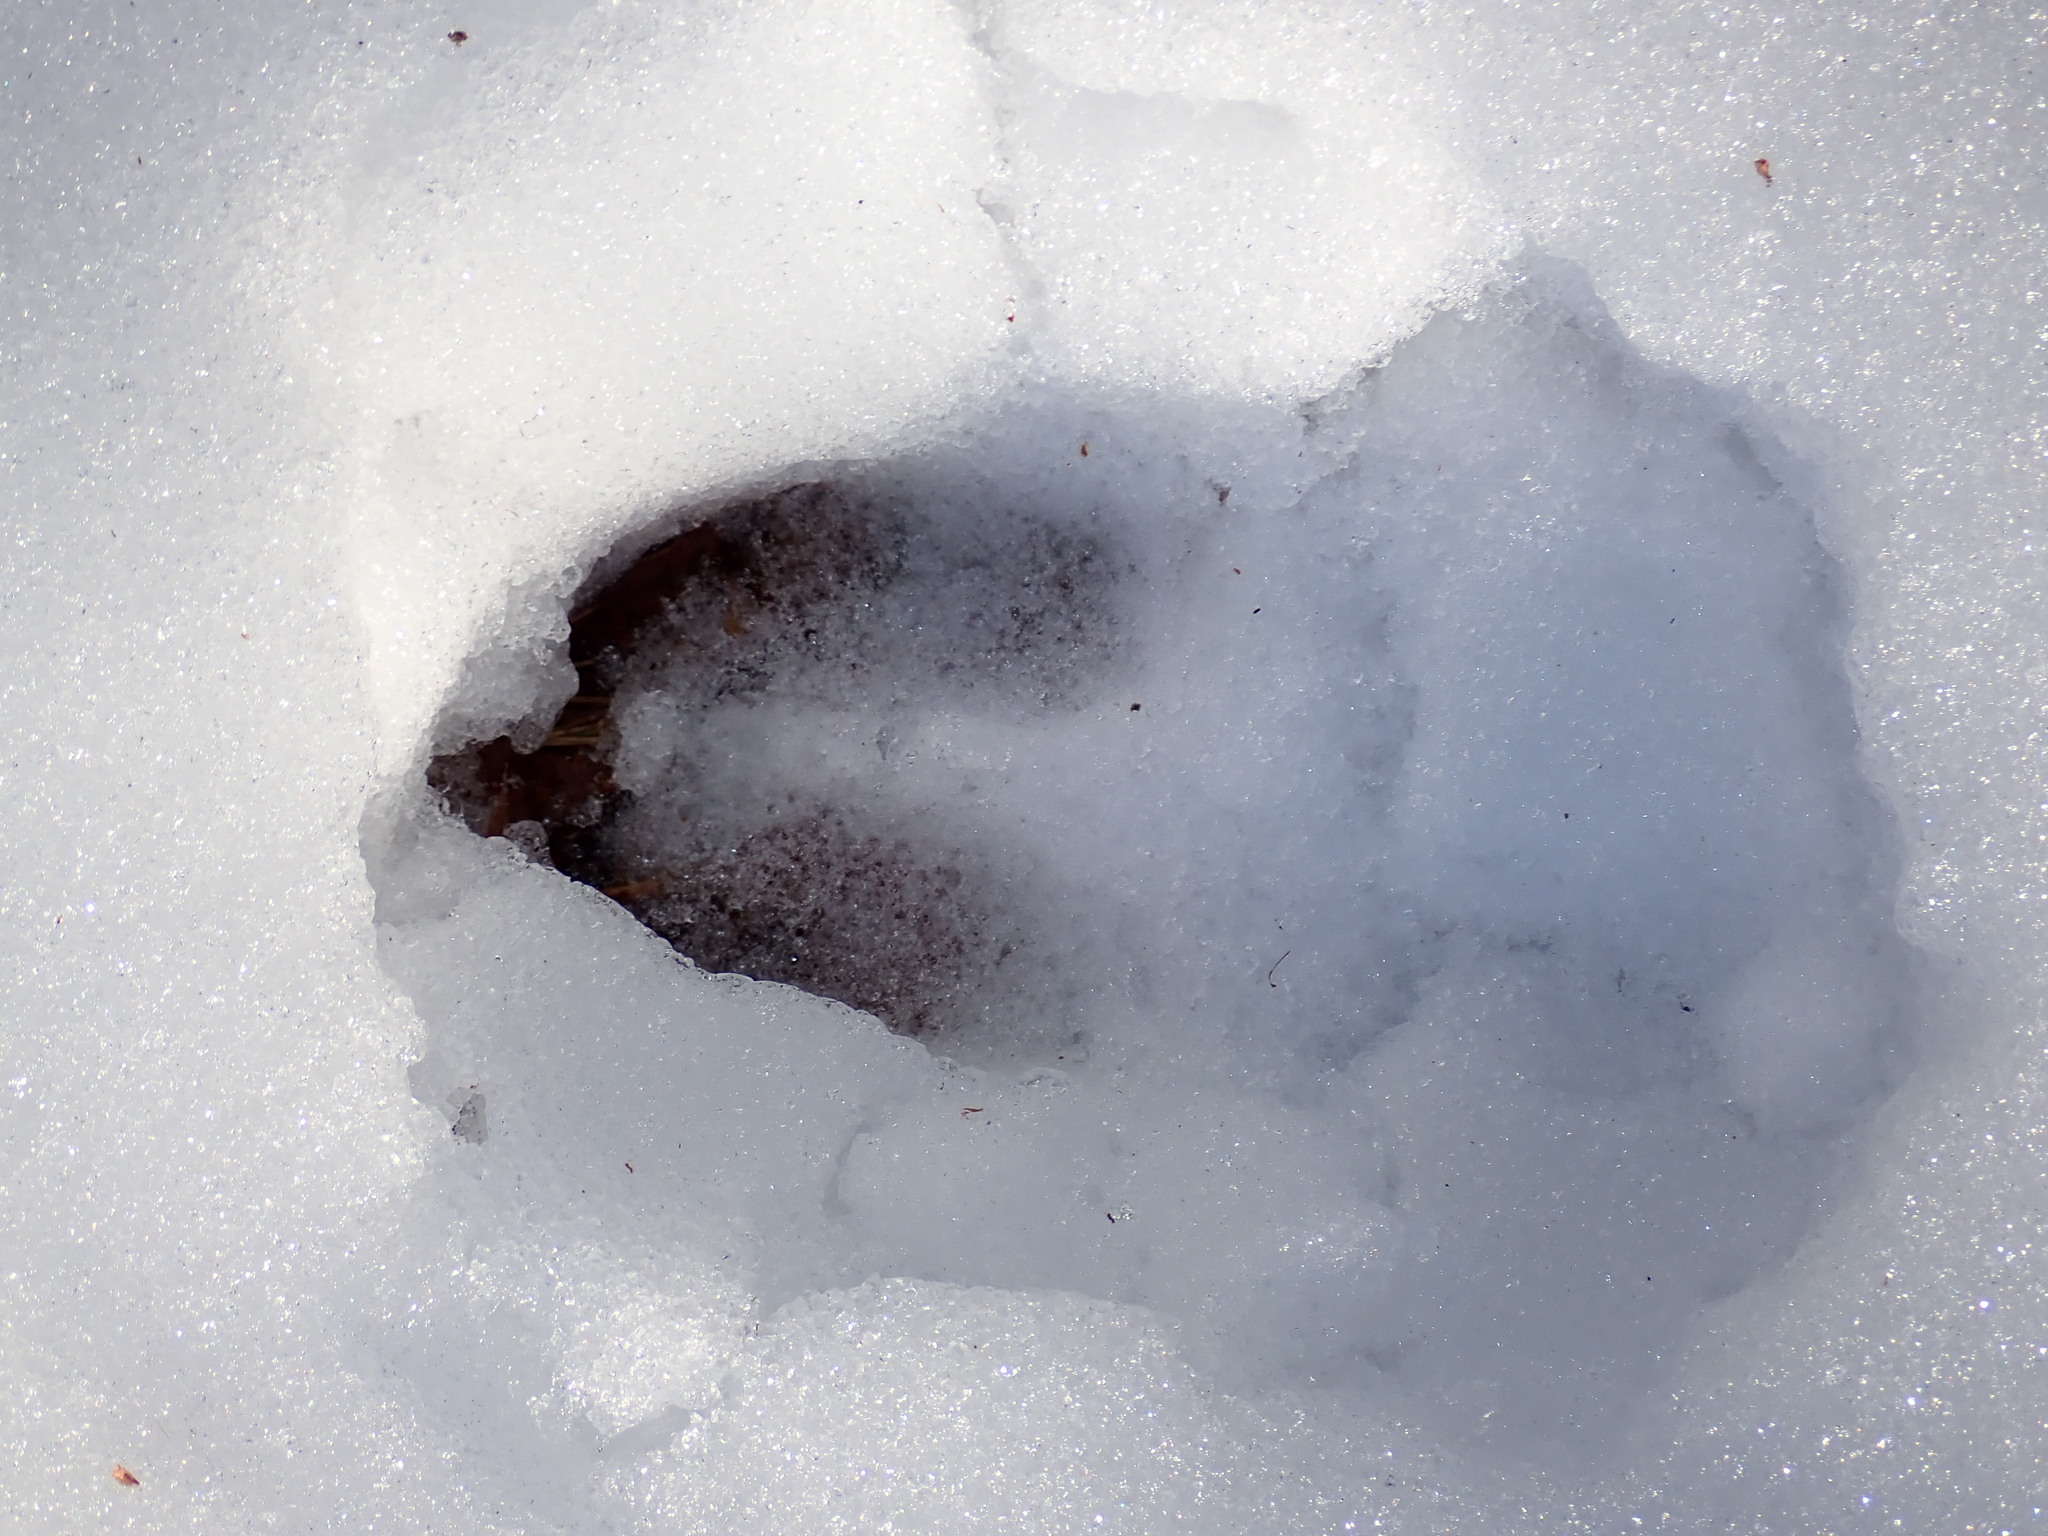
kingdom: Animalia
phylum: Chordata
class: Mammalia
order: Artiodactyla
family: Cervidae
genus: Odocoileus
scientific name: Odocoileus virginianus
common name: White-tailed deer
